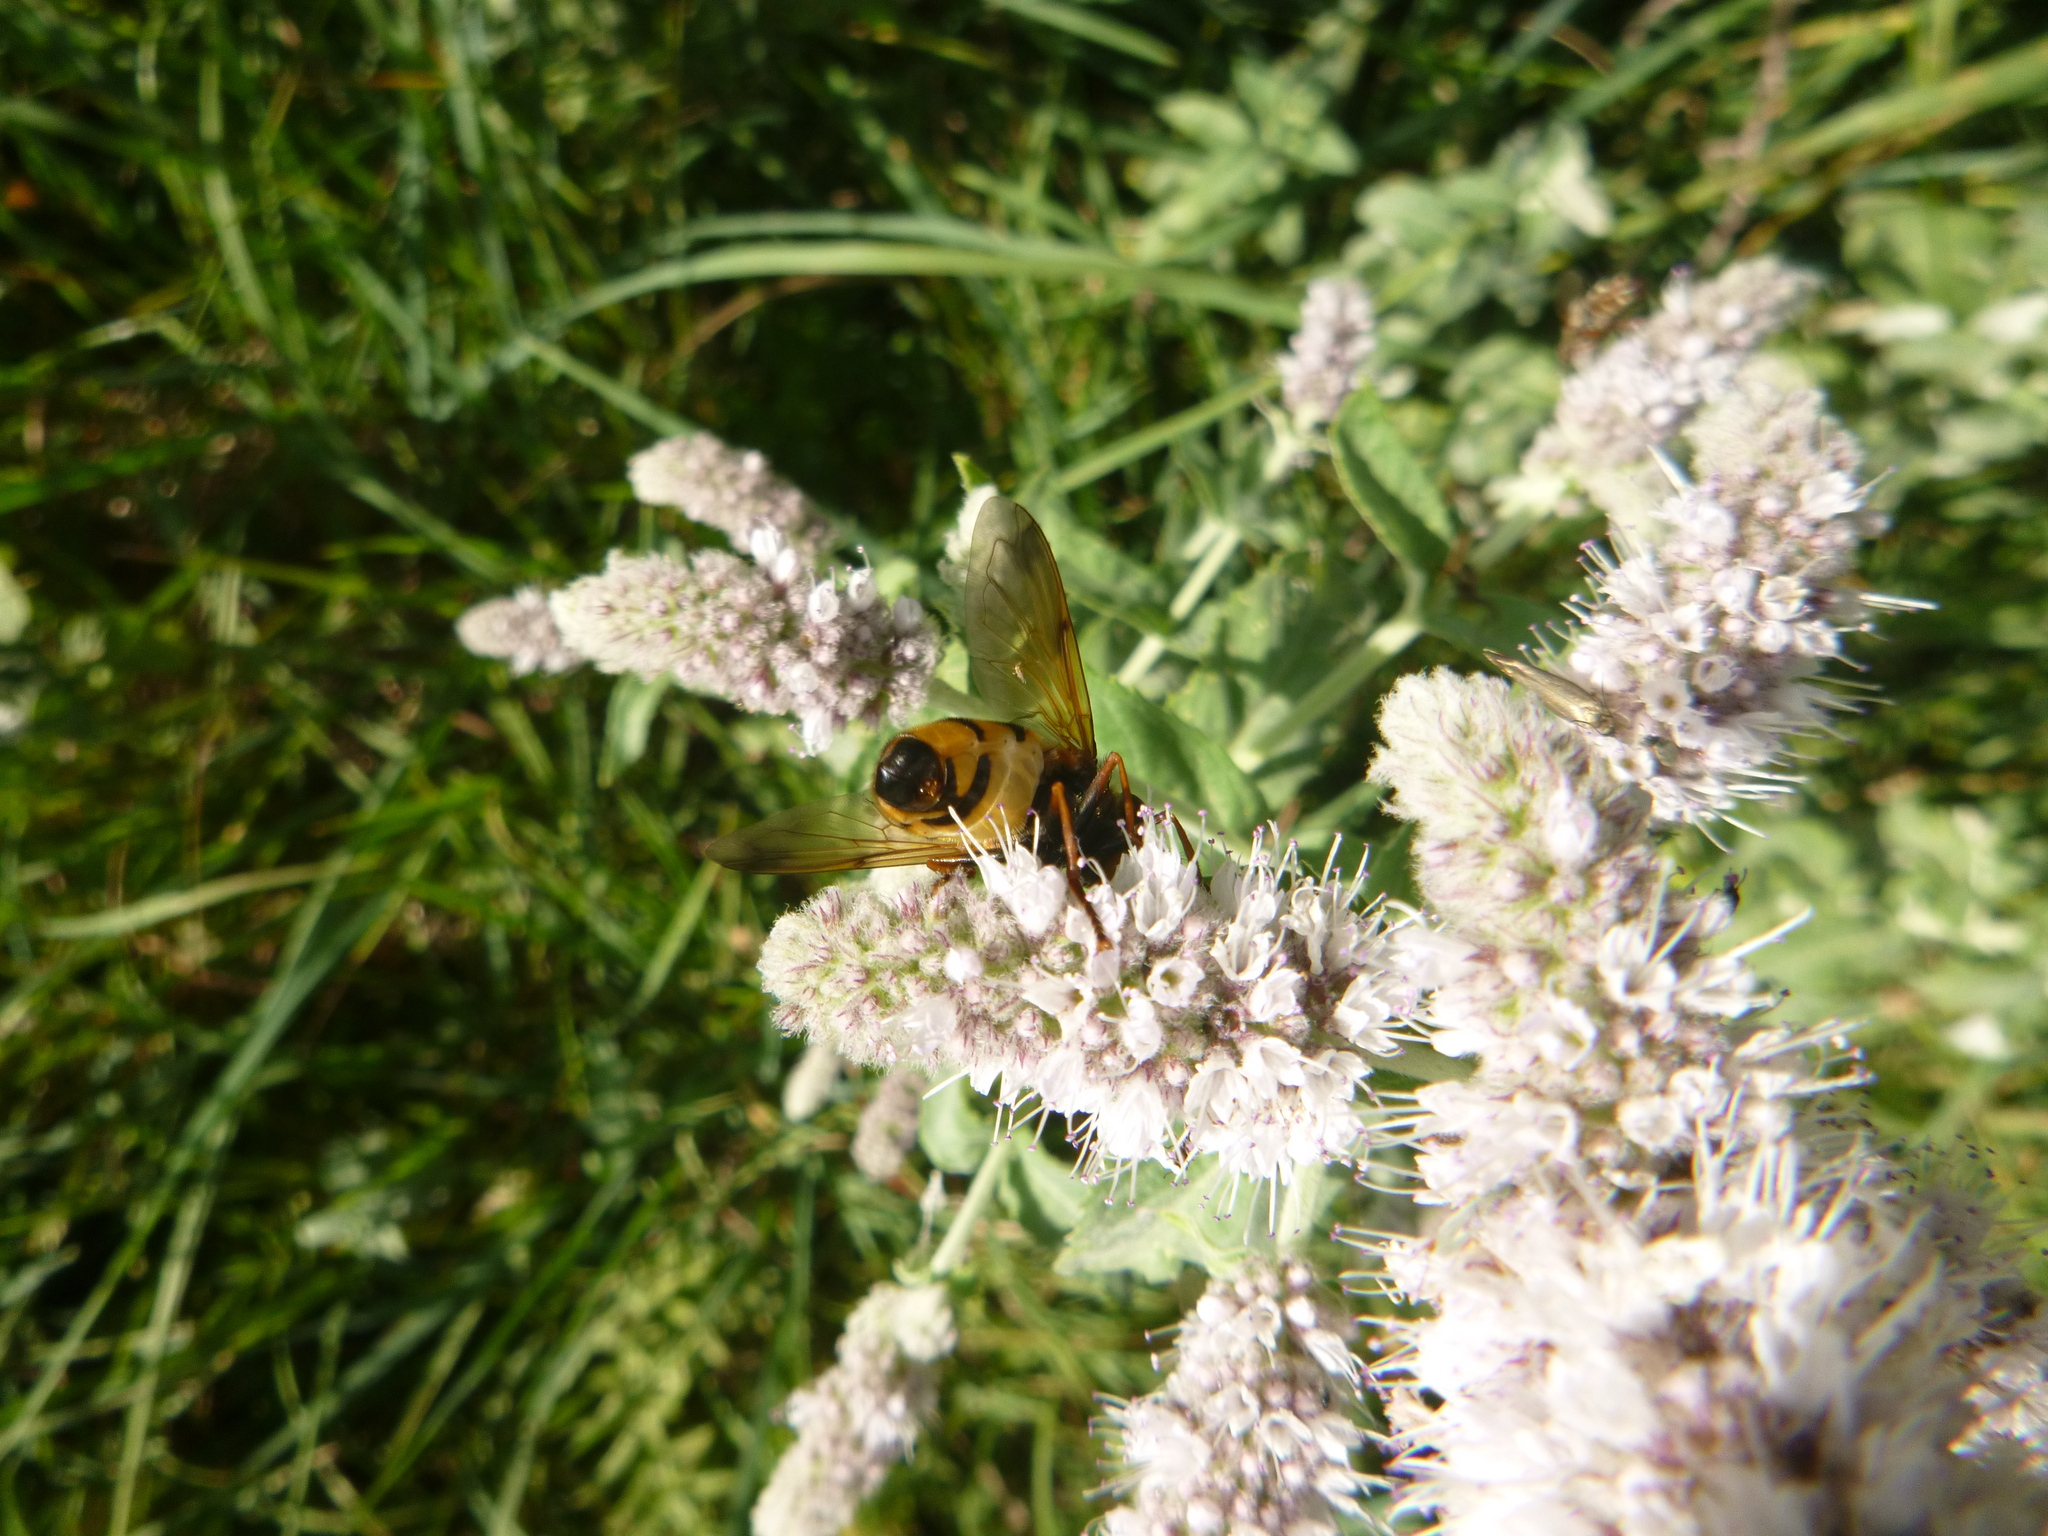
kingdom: Animalia
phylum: Arthropoda
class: Insecta
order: Diptera
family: Syrphidae
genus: Volucella
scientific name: Volucella inanis
